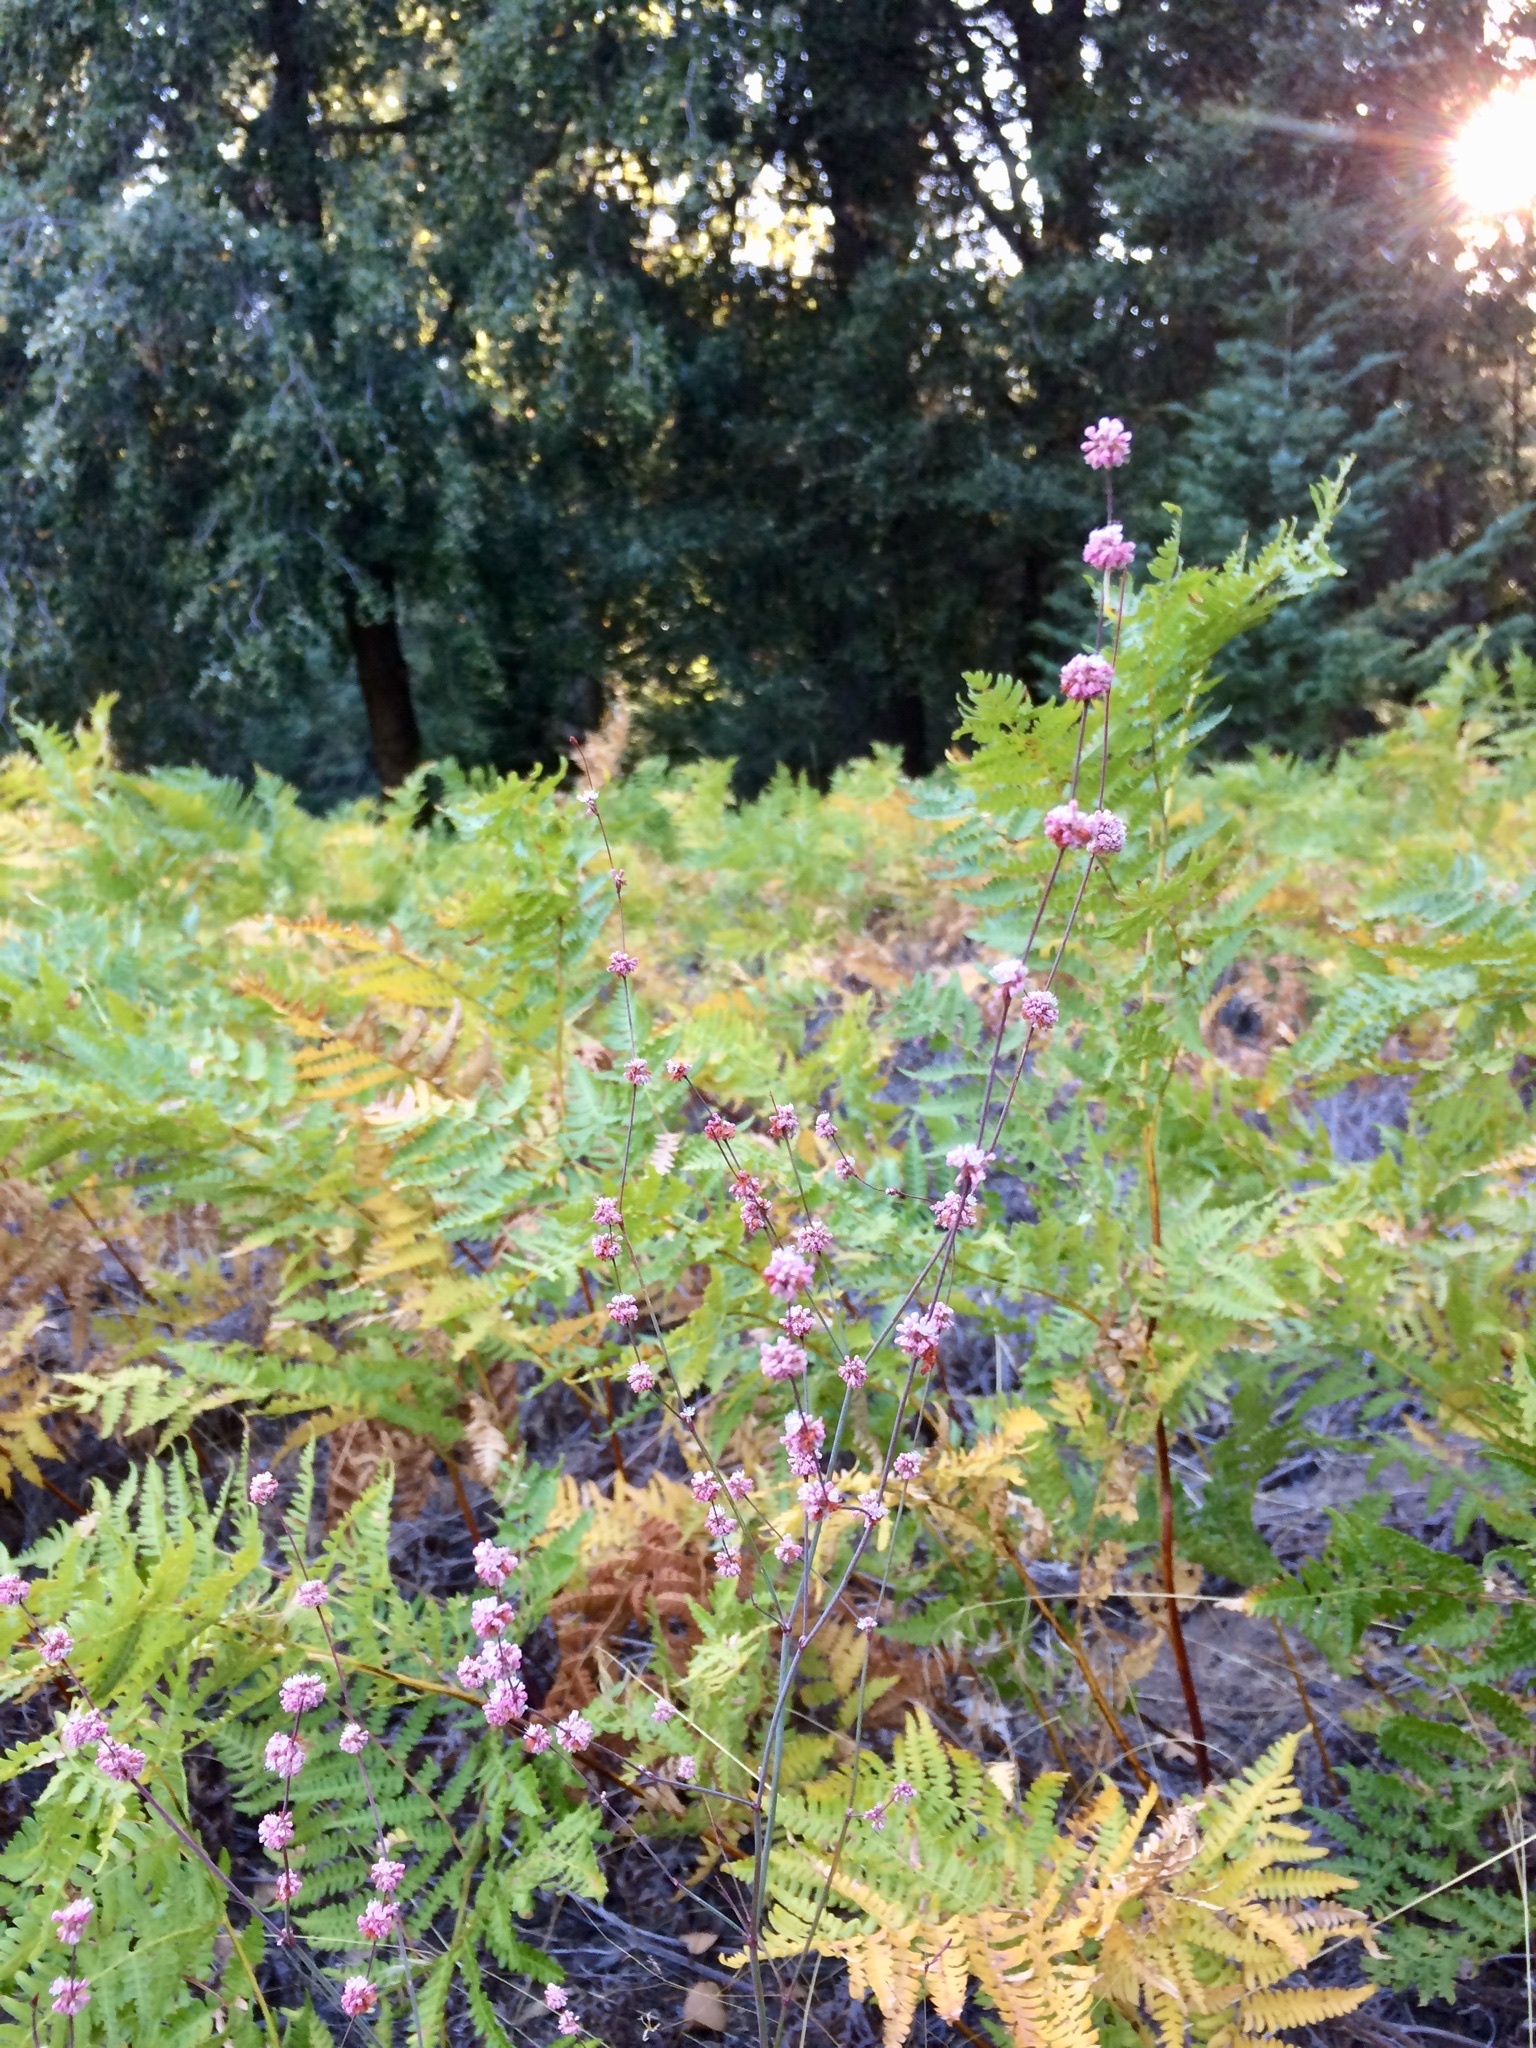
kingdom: Plantae
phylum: Tracheophyta
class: Magnoliopsida
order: Caryophyllales
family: Polygonaceae
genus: Eriogonum
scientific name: Eriogonum elongatum
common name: Long-stem wild buckwheat
